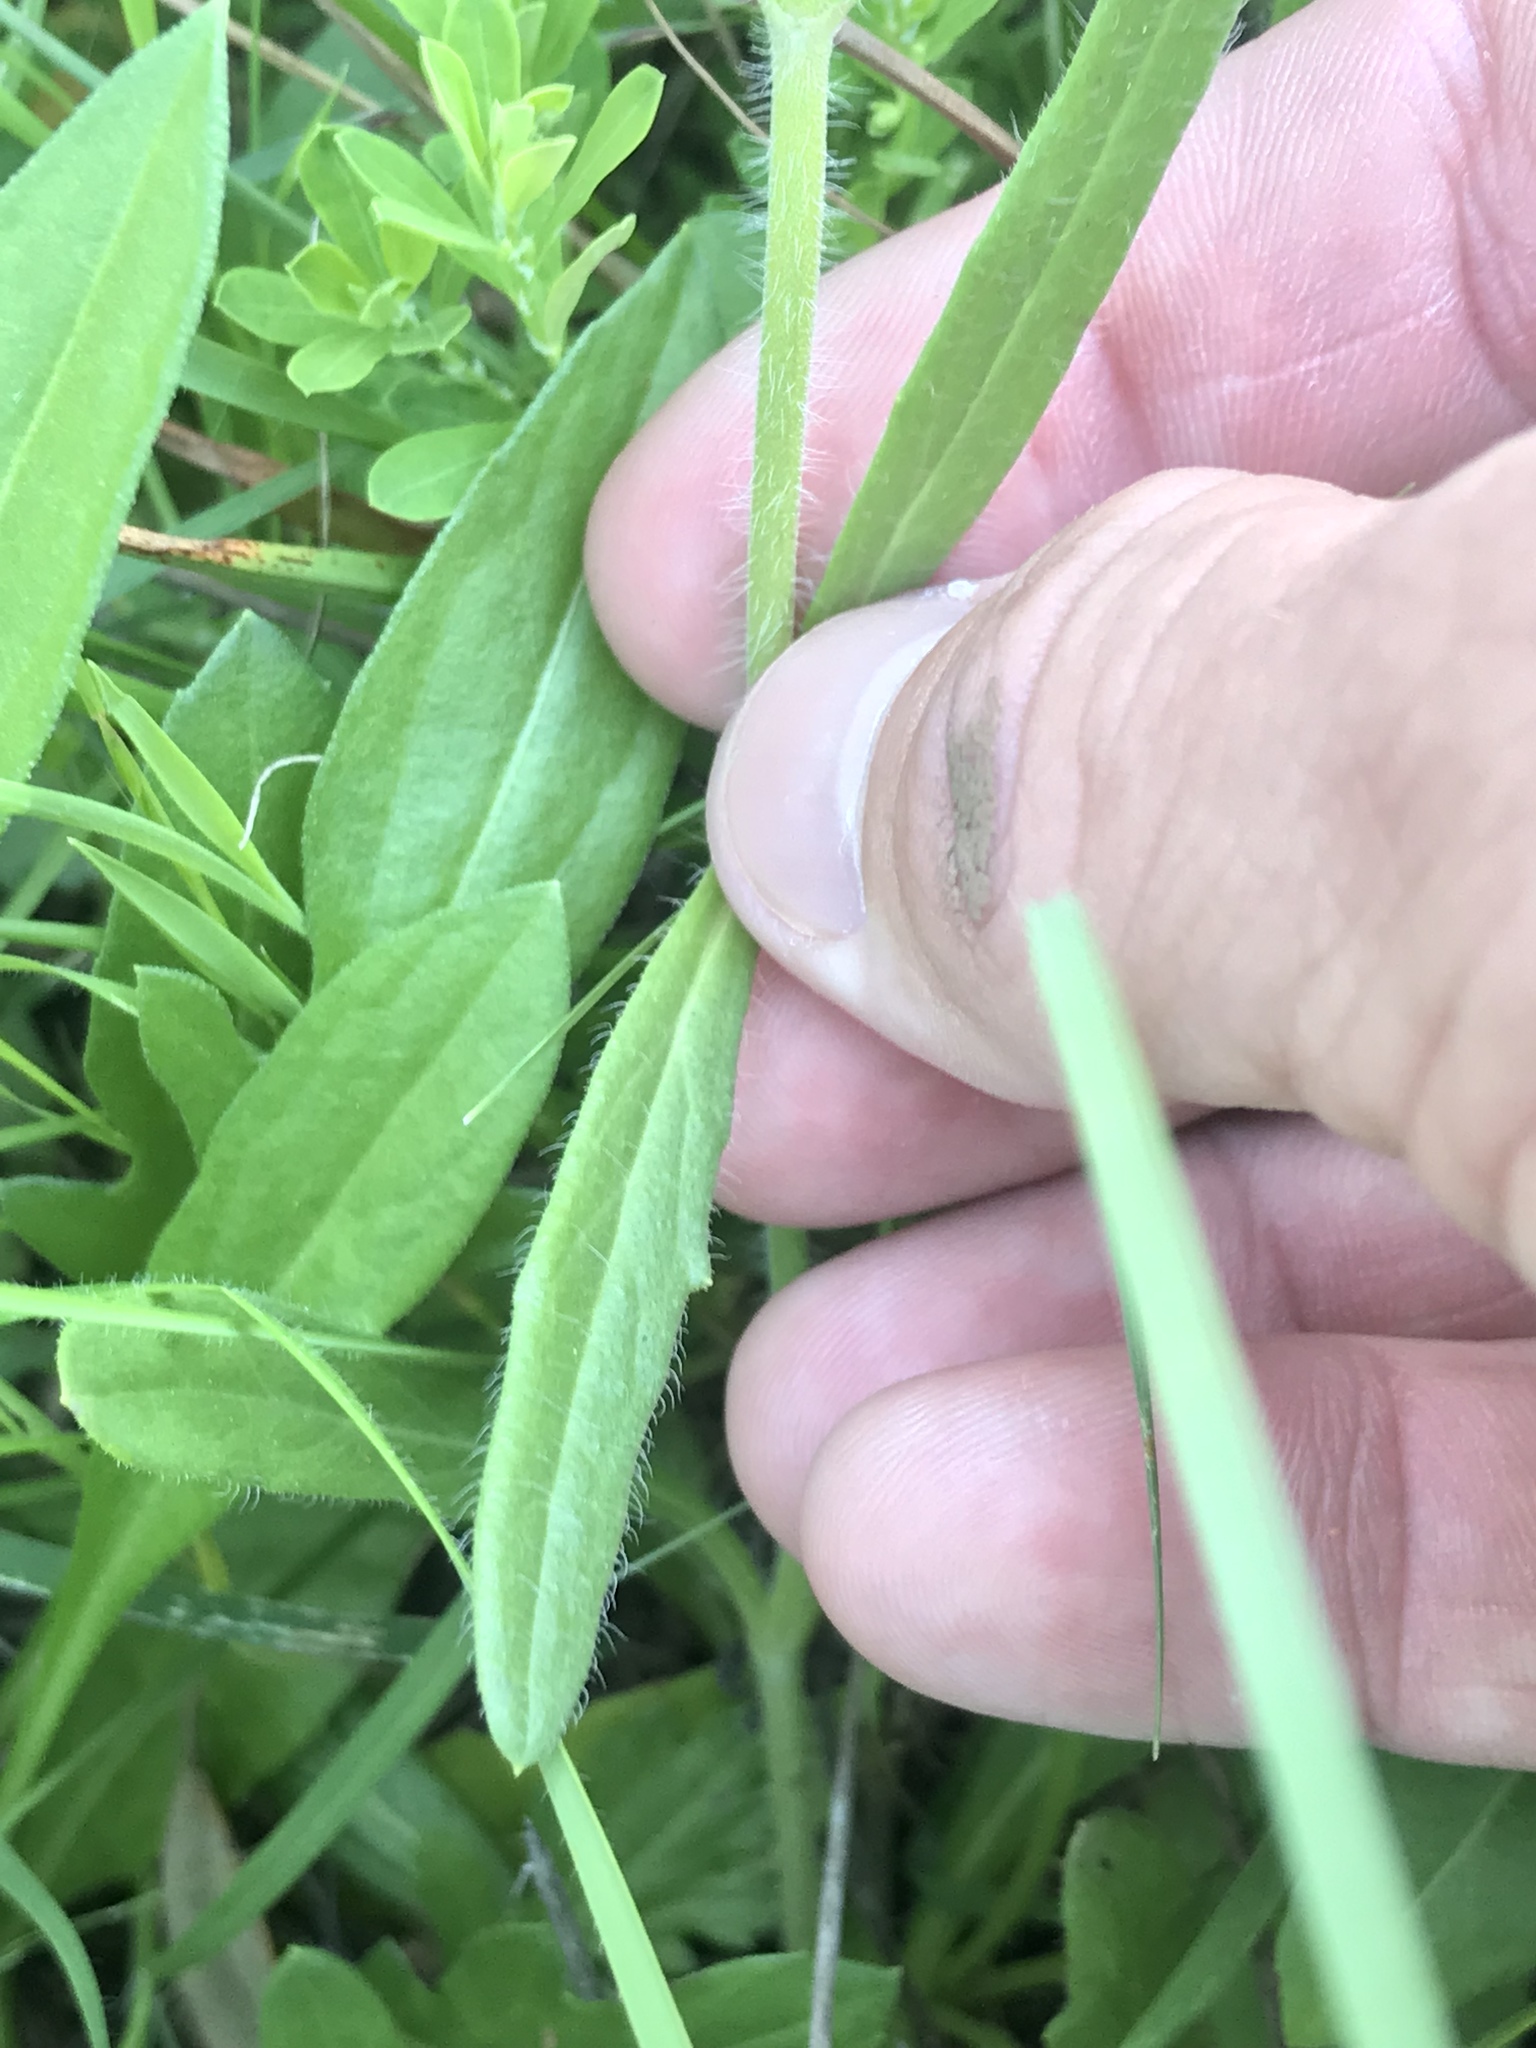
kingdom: Plantae
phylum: Tracheophyta
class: Magnoliopsida
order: Lamiales
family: Lamiaceae
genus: Salvia
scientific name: Salvia texana
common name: Texas sage
